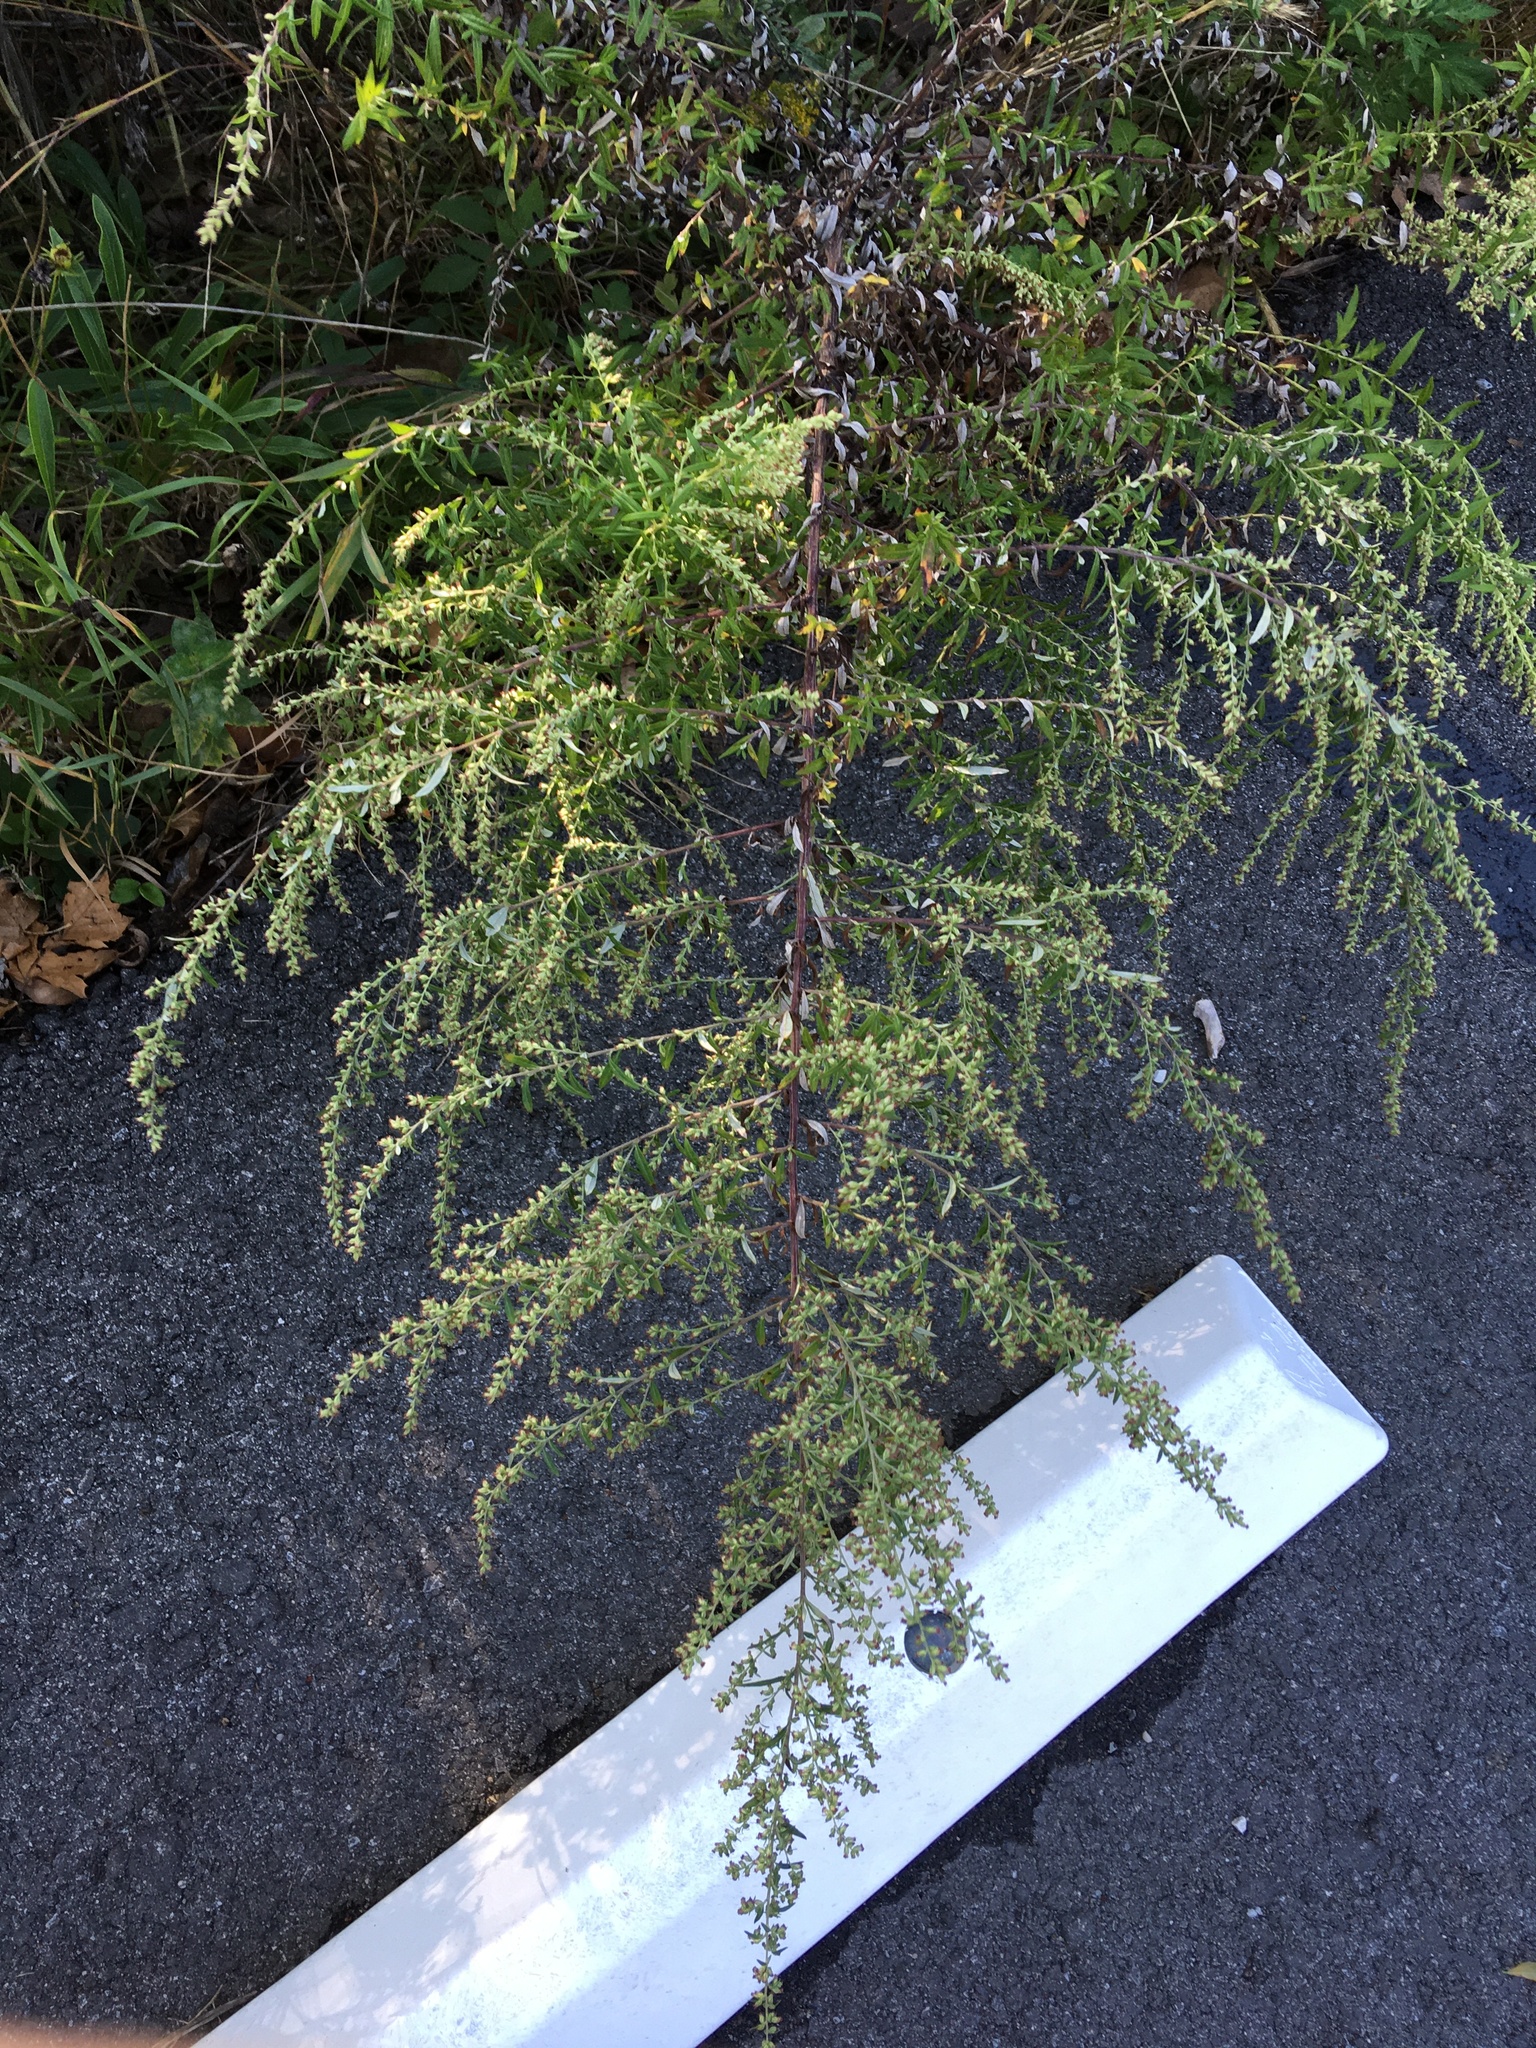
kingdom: Plantae
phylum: Tracheophyta
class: Magnoliopsida
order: Asterales
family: Asteraceae
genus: Artemisia
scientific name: Artemisia vulgaris
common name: Mugwort
